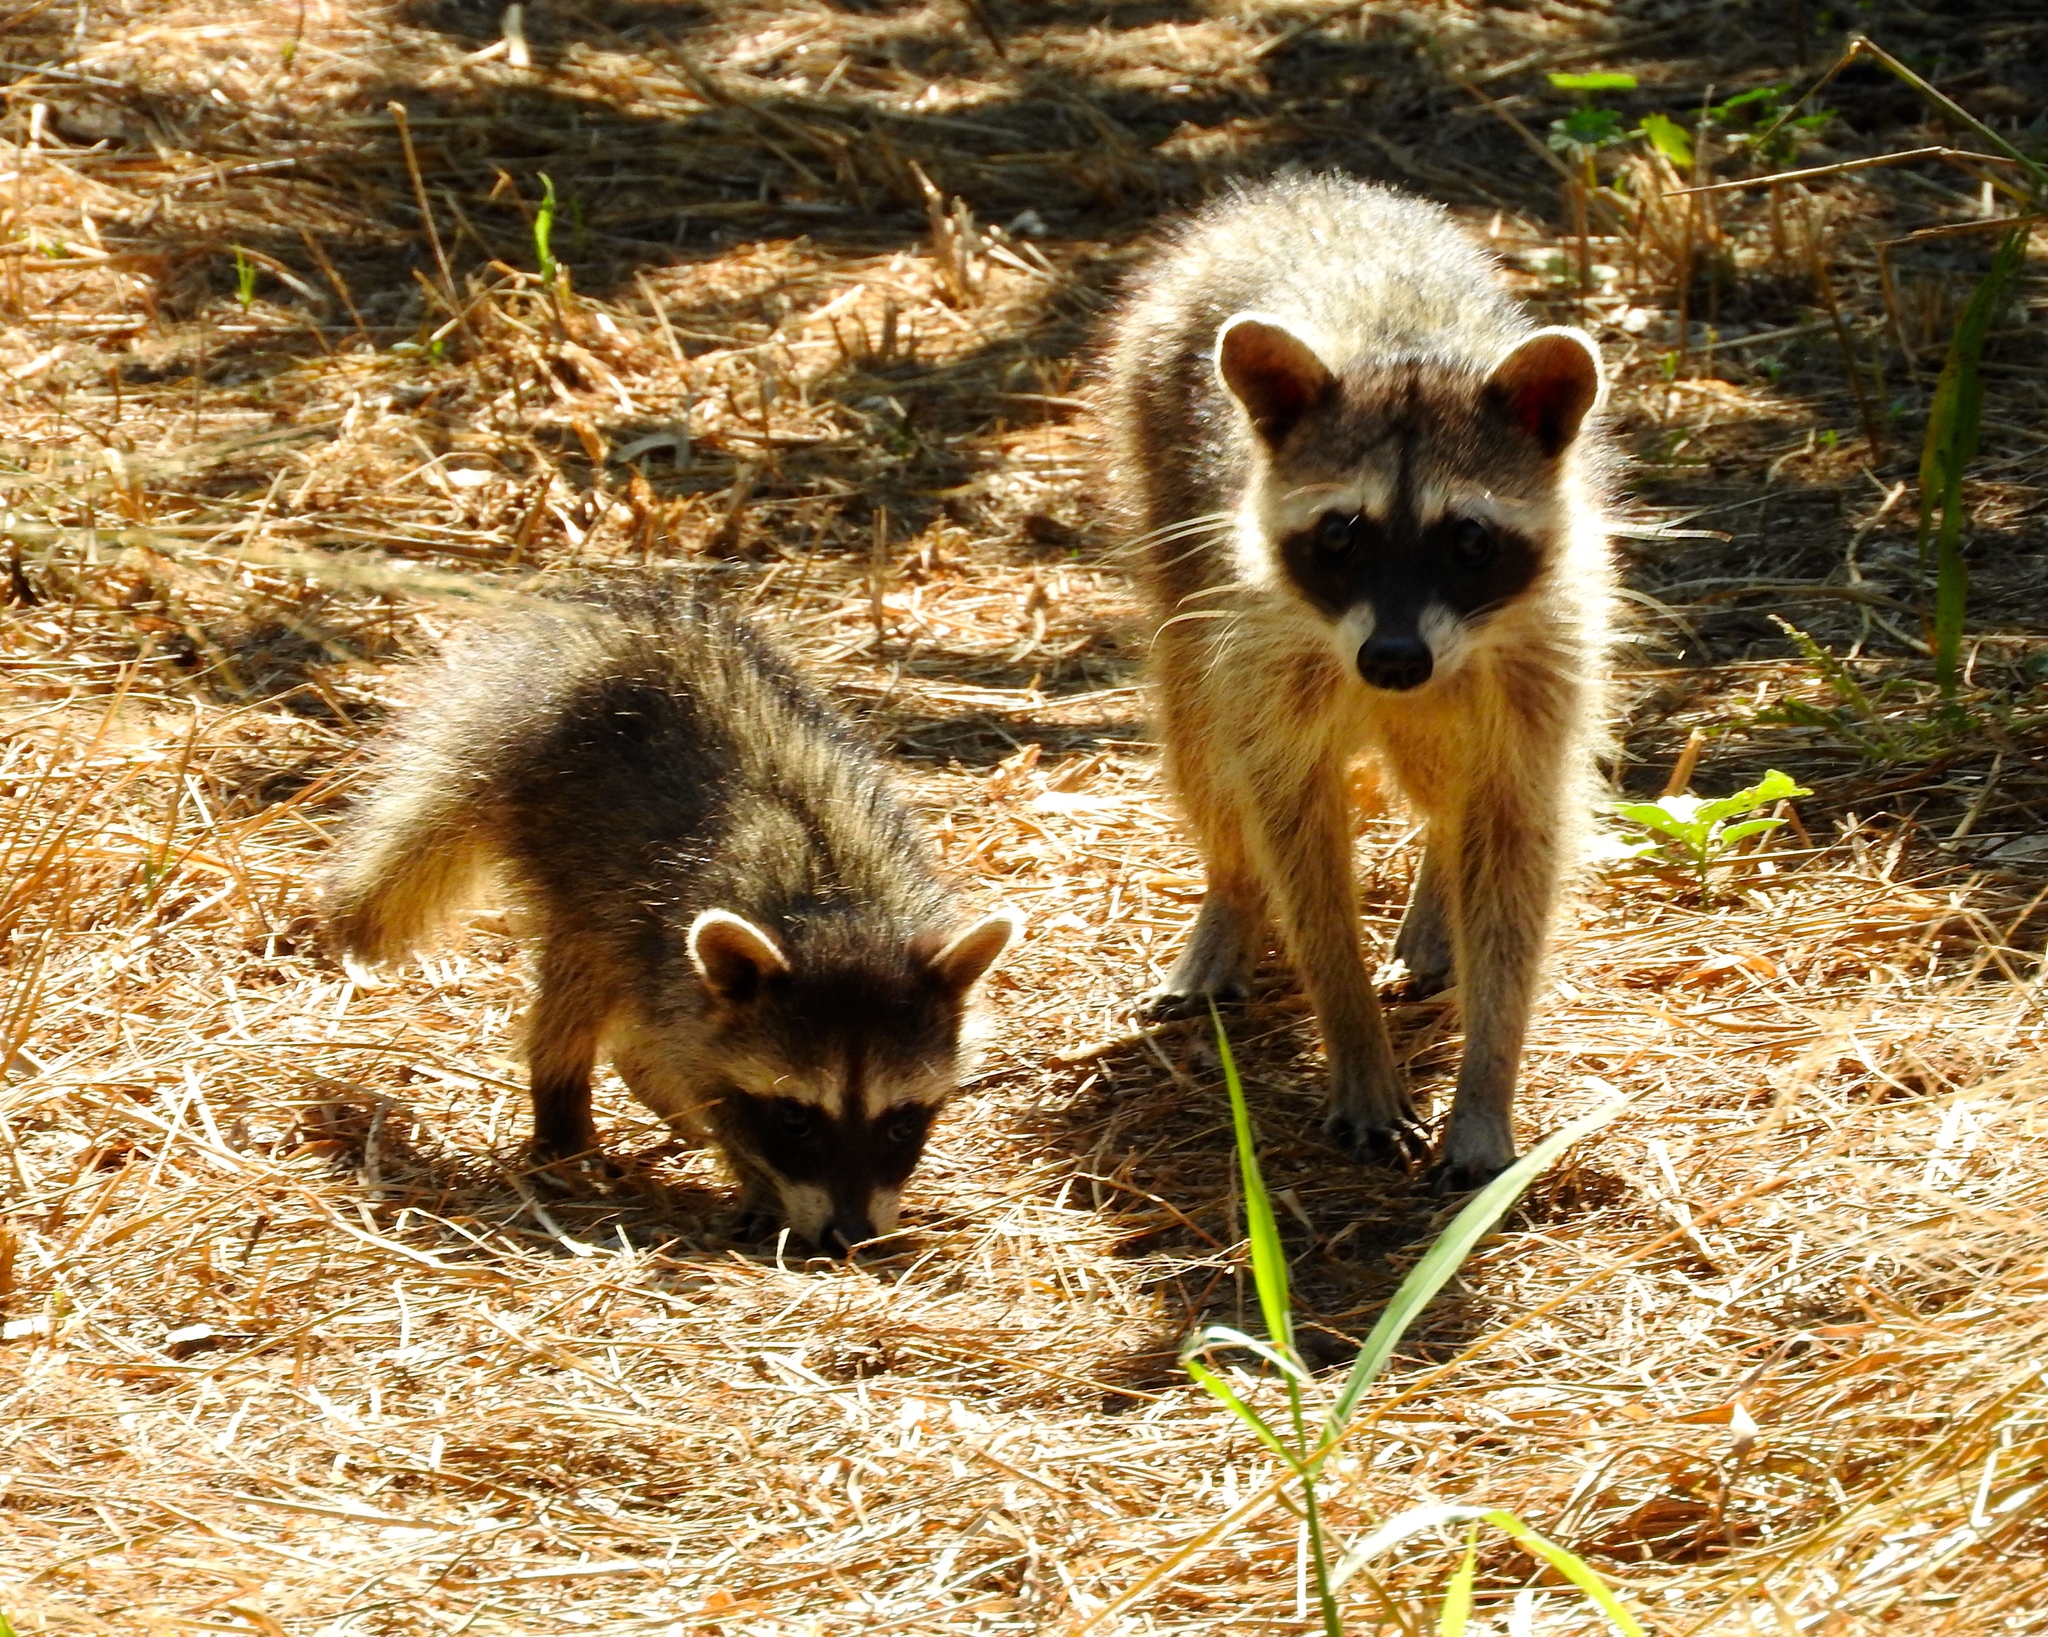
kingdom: Animalia
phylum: Chordata
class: Mammalia
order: Carnivora
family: Procyonidae
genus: Procyon
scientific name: Procyon lotor
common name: Raccoon
